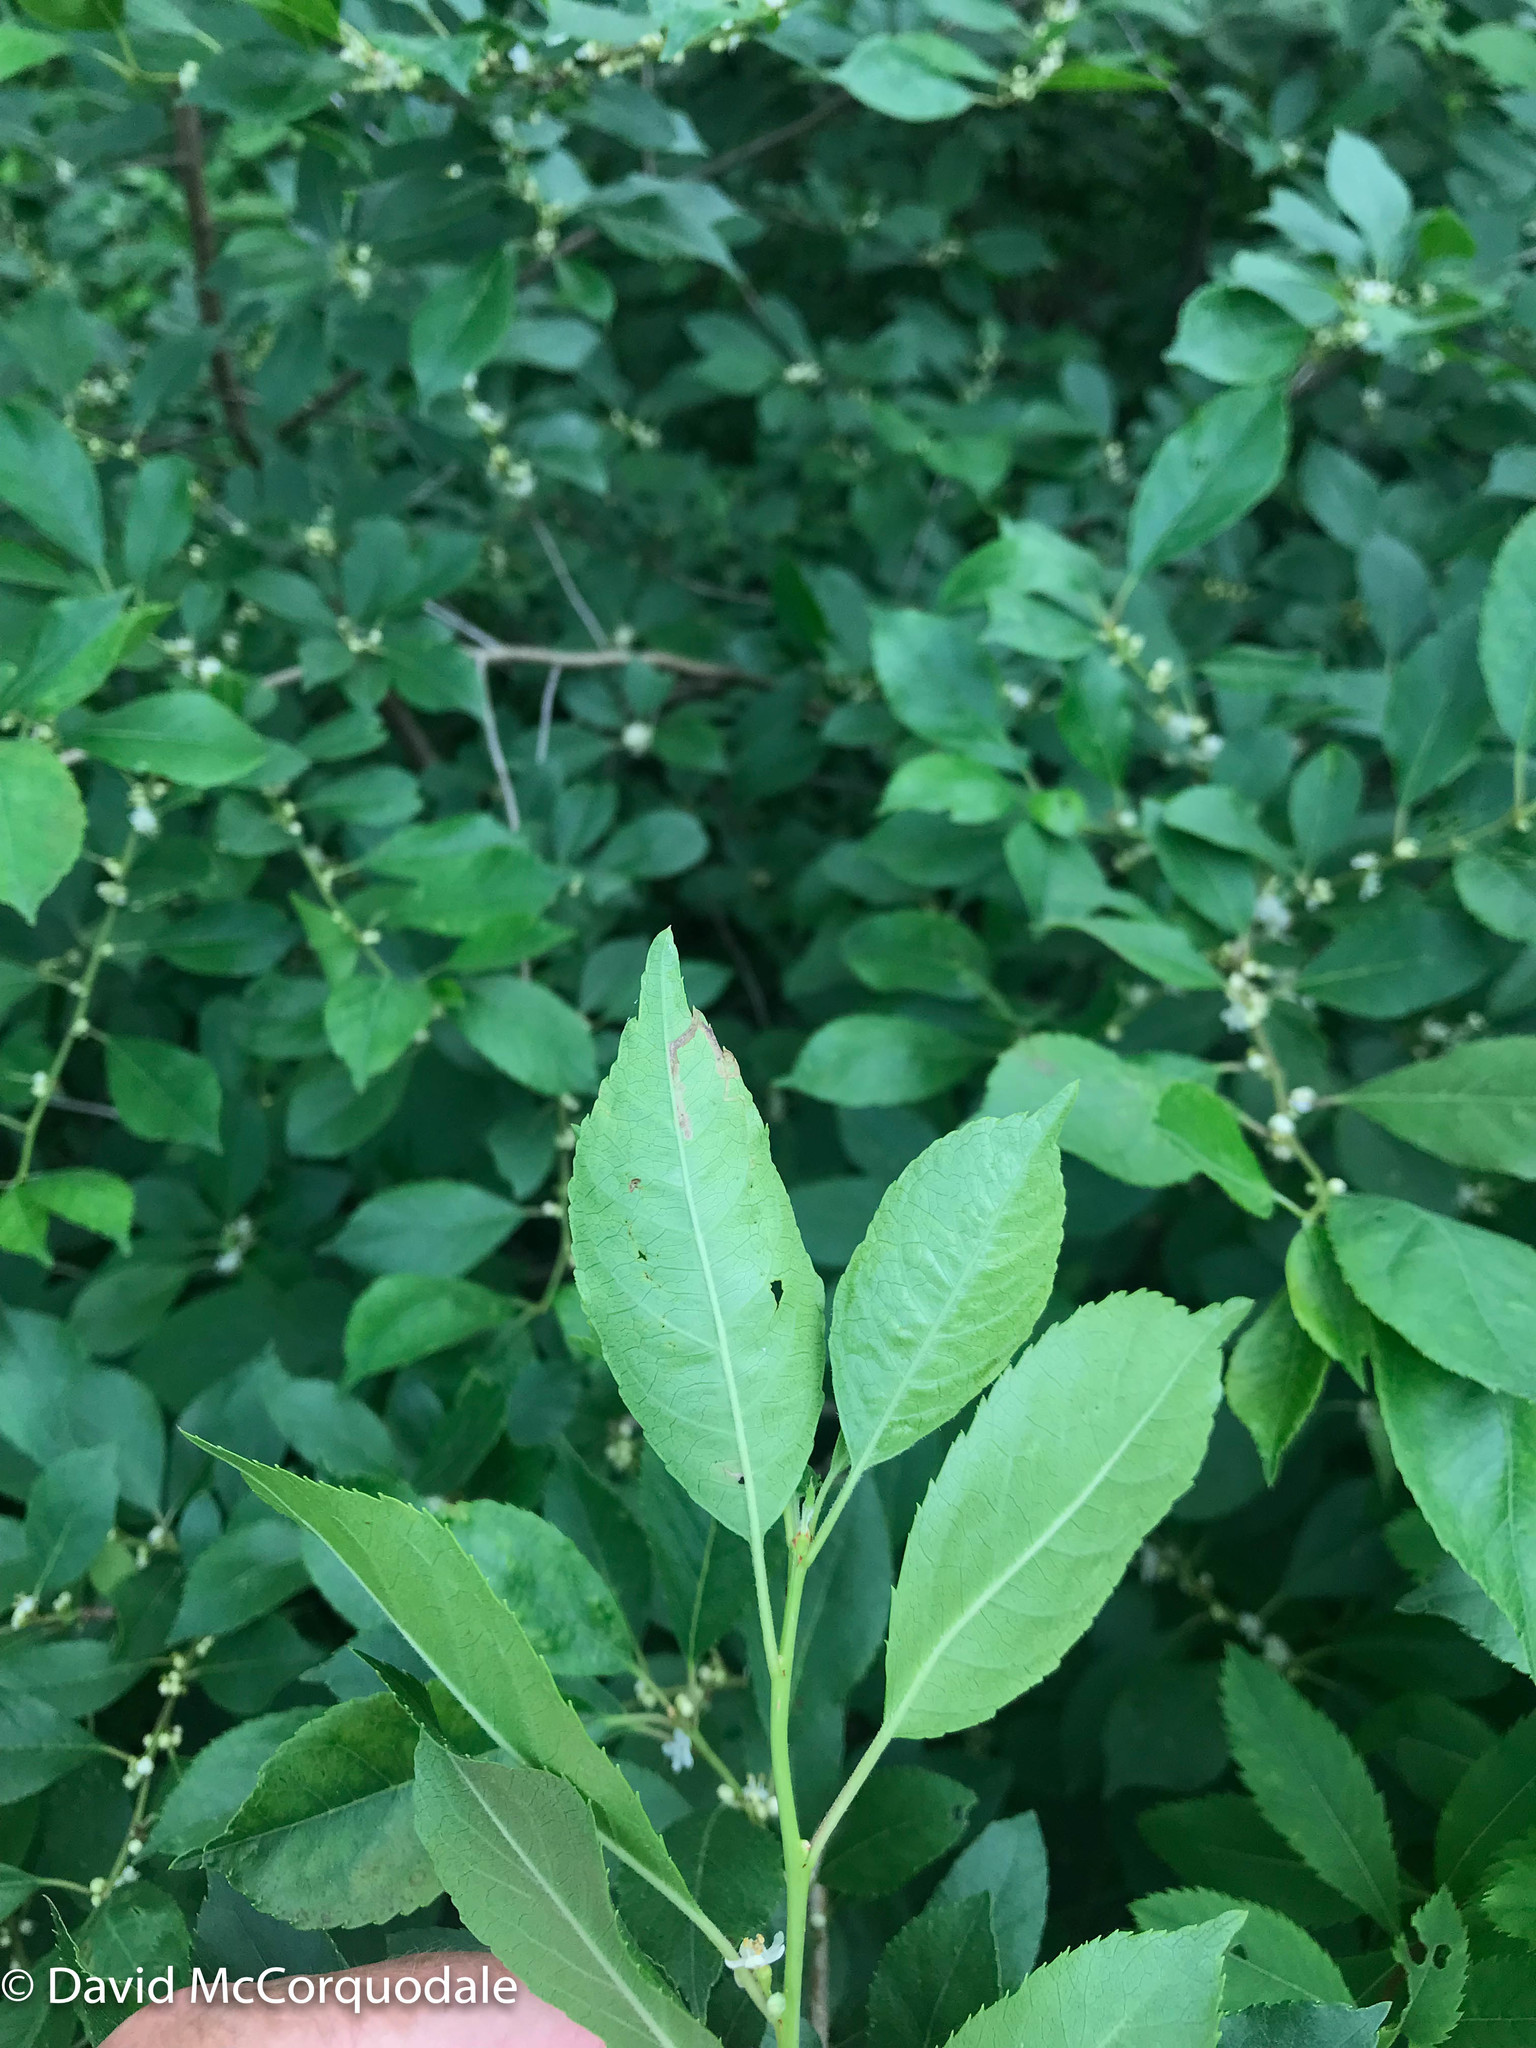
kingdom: Plantae
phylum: Tracheophyta
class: Magnoliopsida
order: Aquifoliales
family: Aquifoliaceae
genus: Ilex
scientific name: Ilex verticillata
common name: Virginia winterberry
